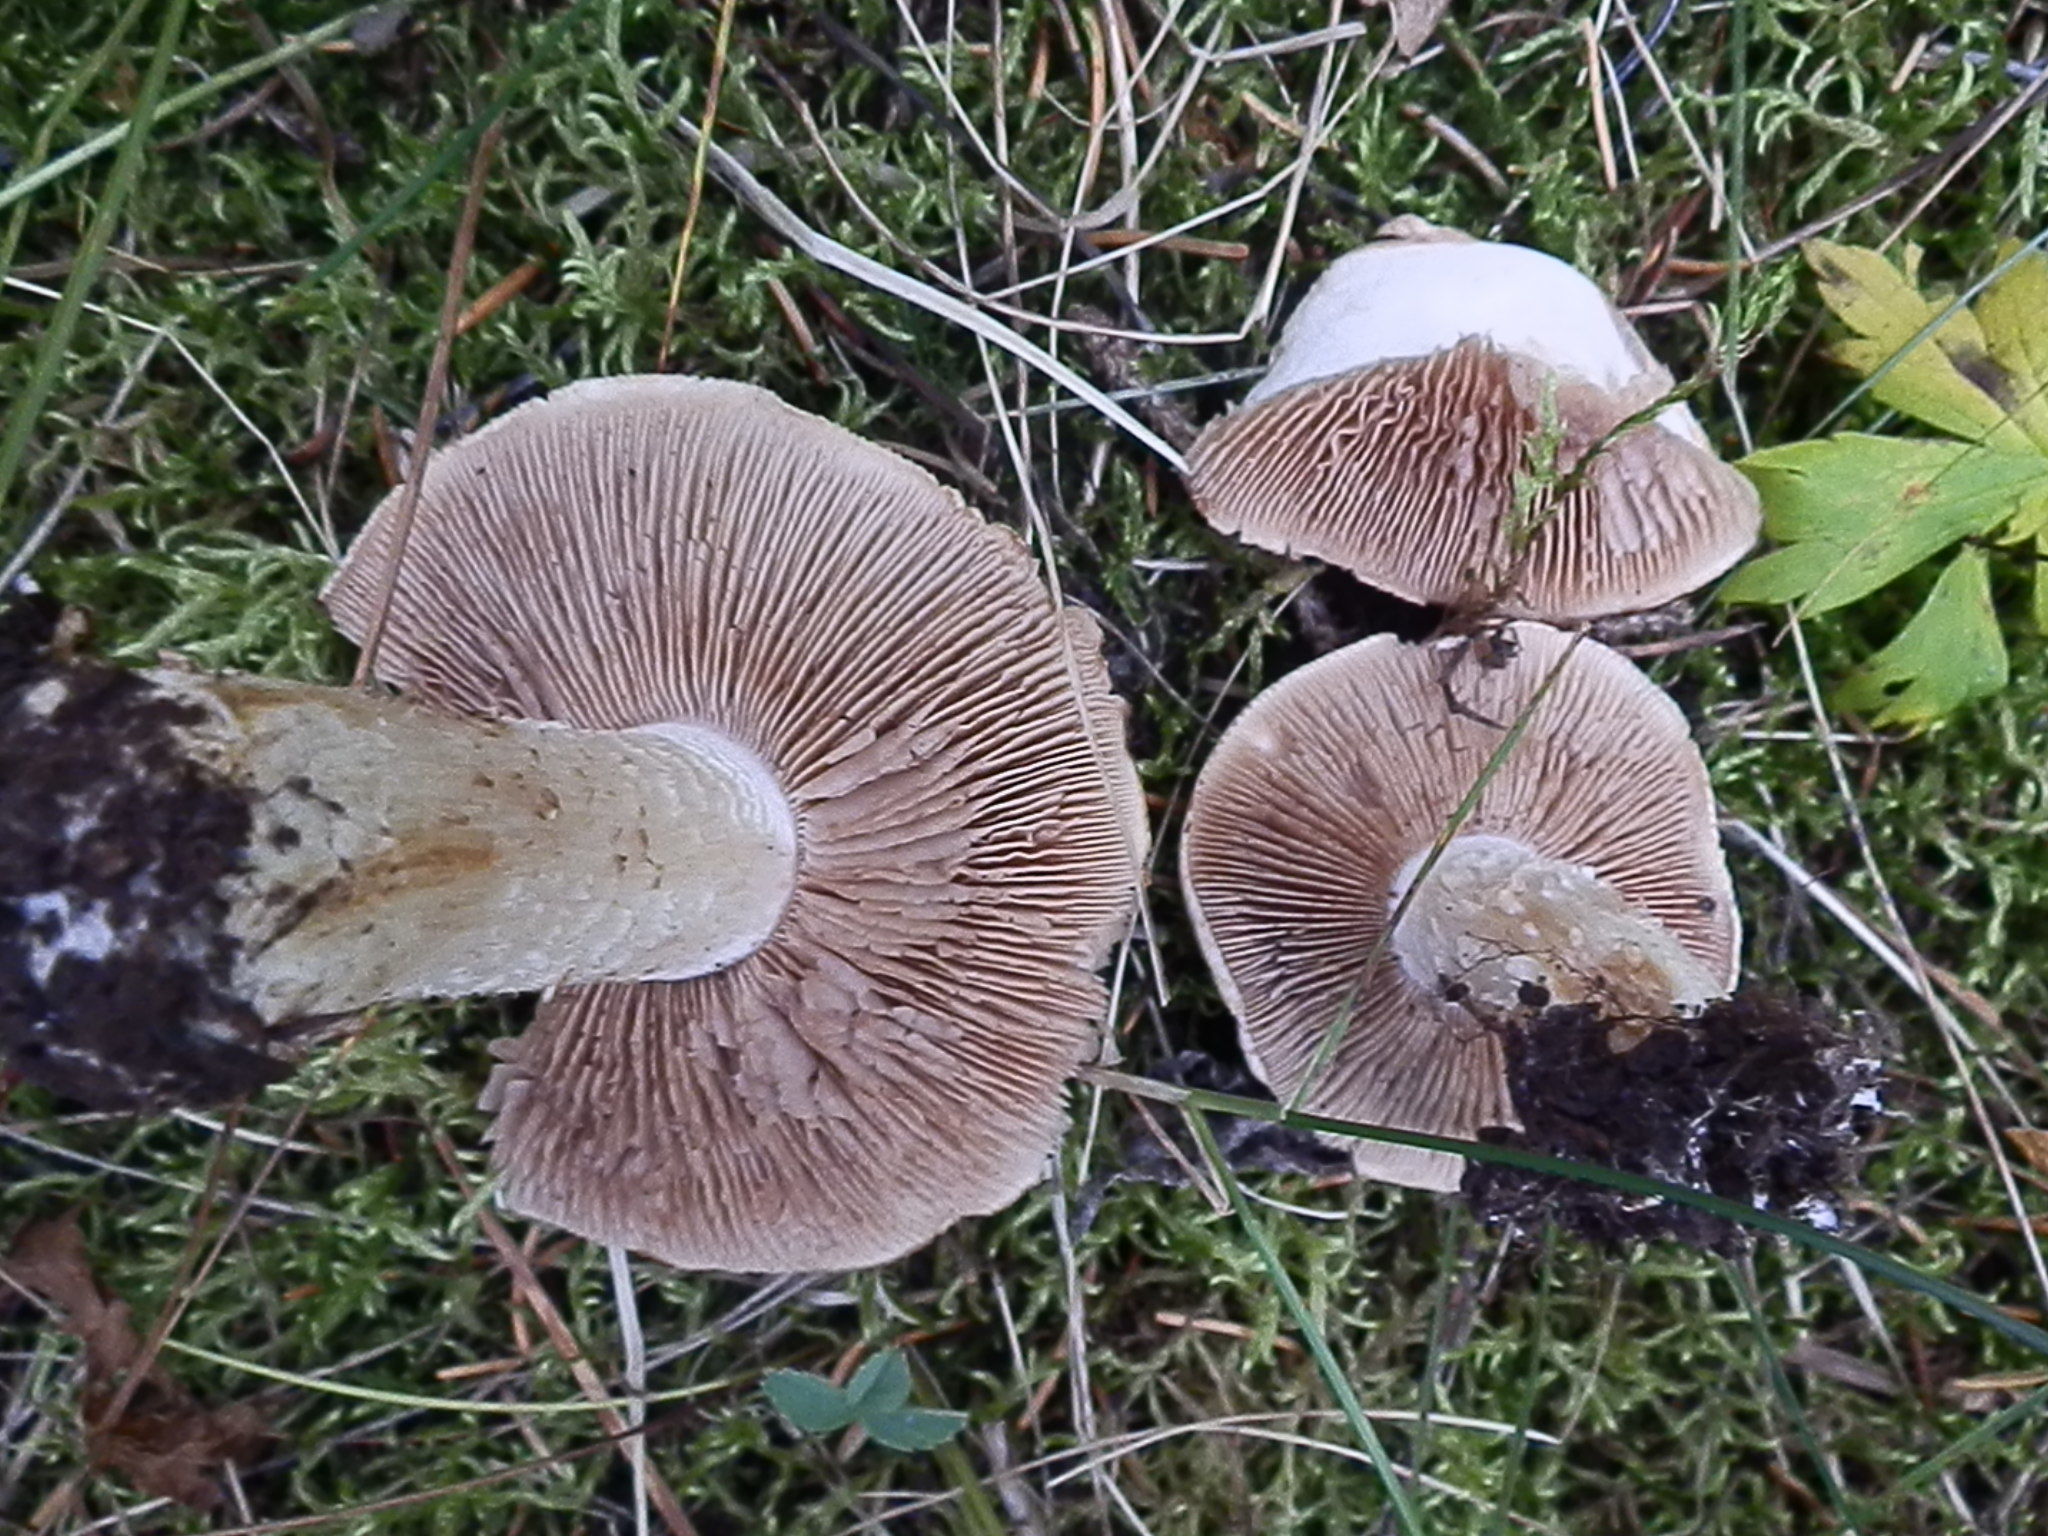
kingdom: Fungi
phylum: Basidiomycota
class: Agaricomycetes
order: Agaricales
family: Hymenogastraceae
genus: Hebeloma
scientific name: Hebeloma albomarginatum
